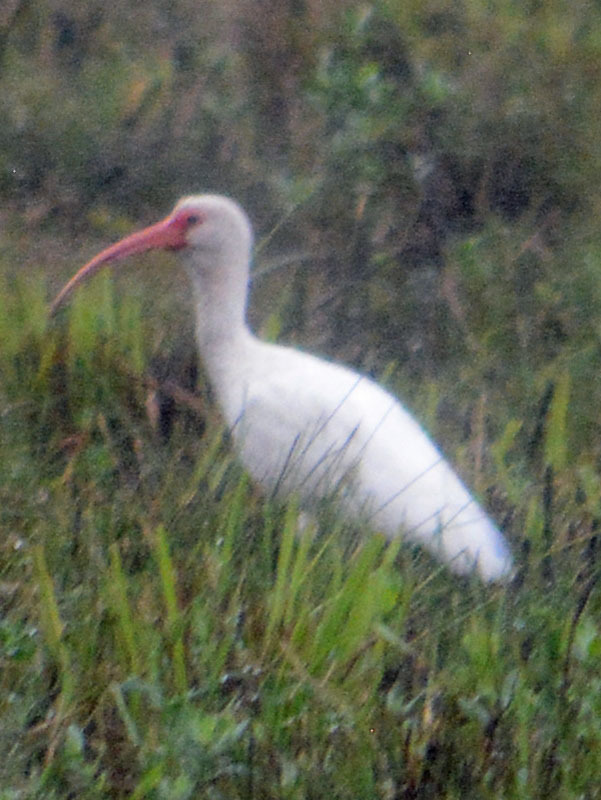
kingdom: Animalia
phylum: Chordata
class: Aves
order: Pelecaniformes
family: Threskiornithidae
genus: Eudocimus
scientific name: Eudocimus albus
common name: White ibis
